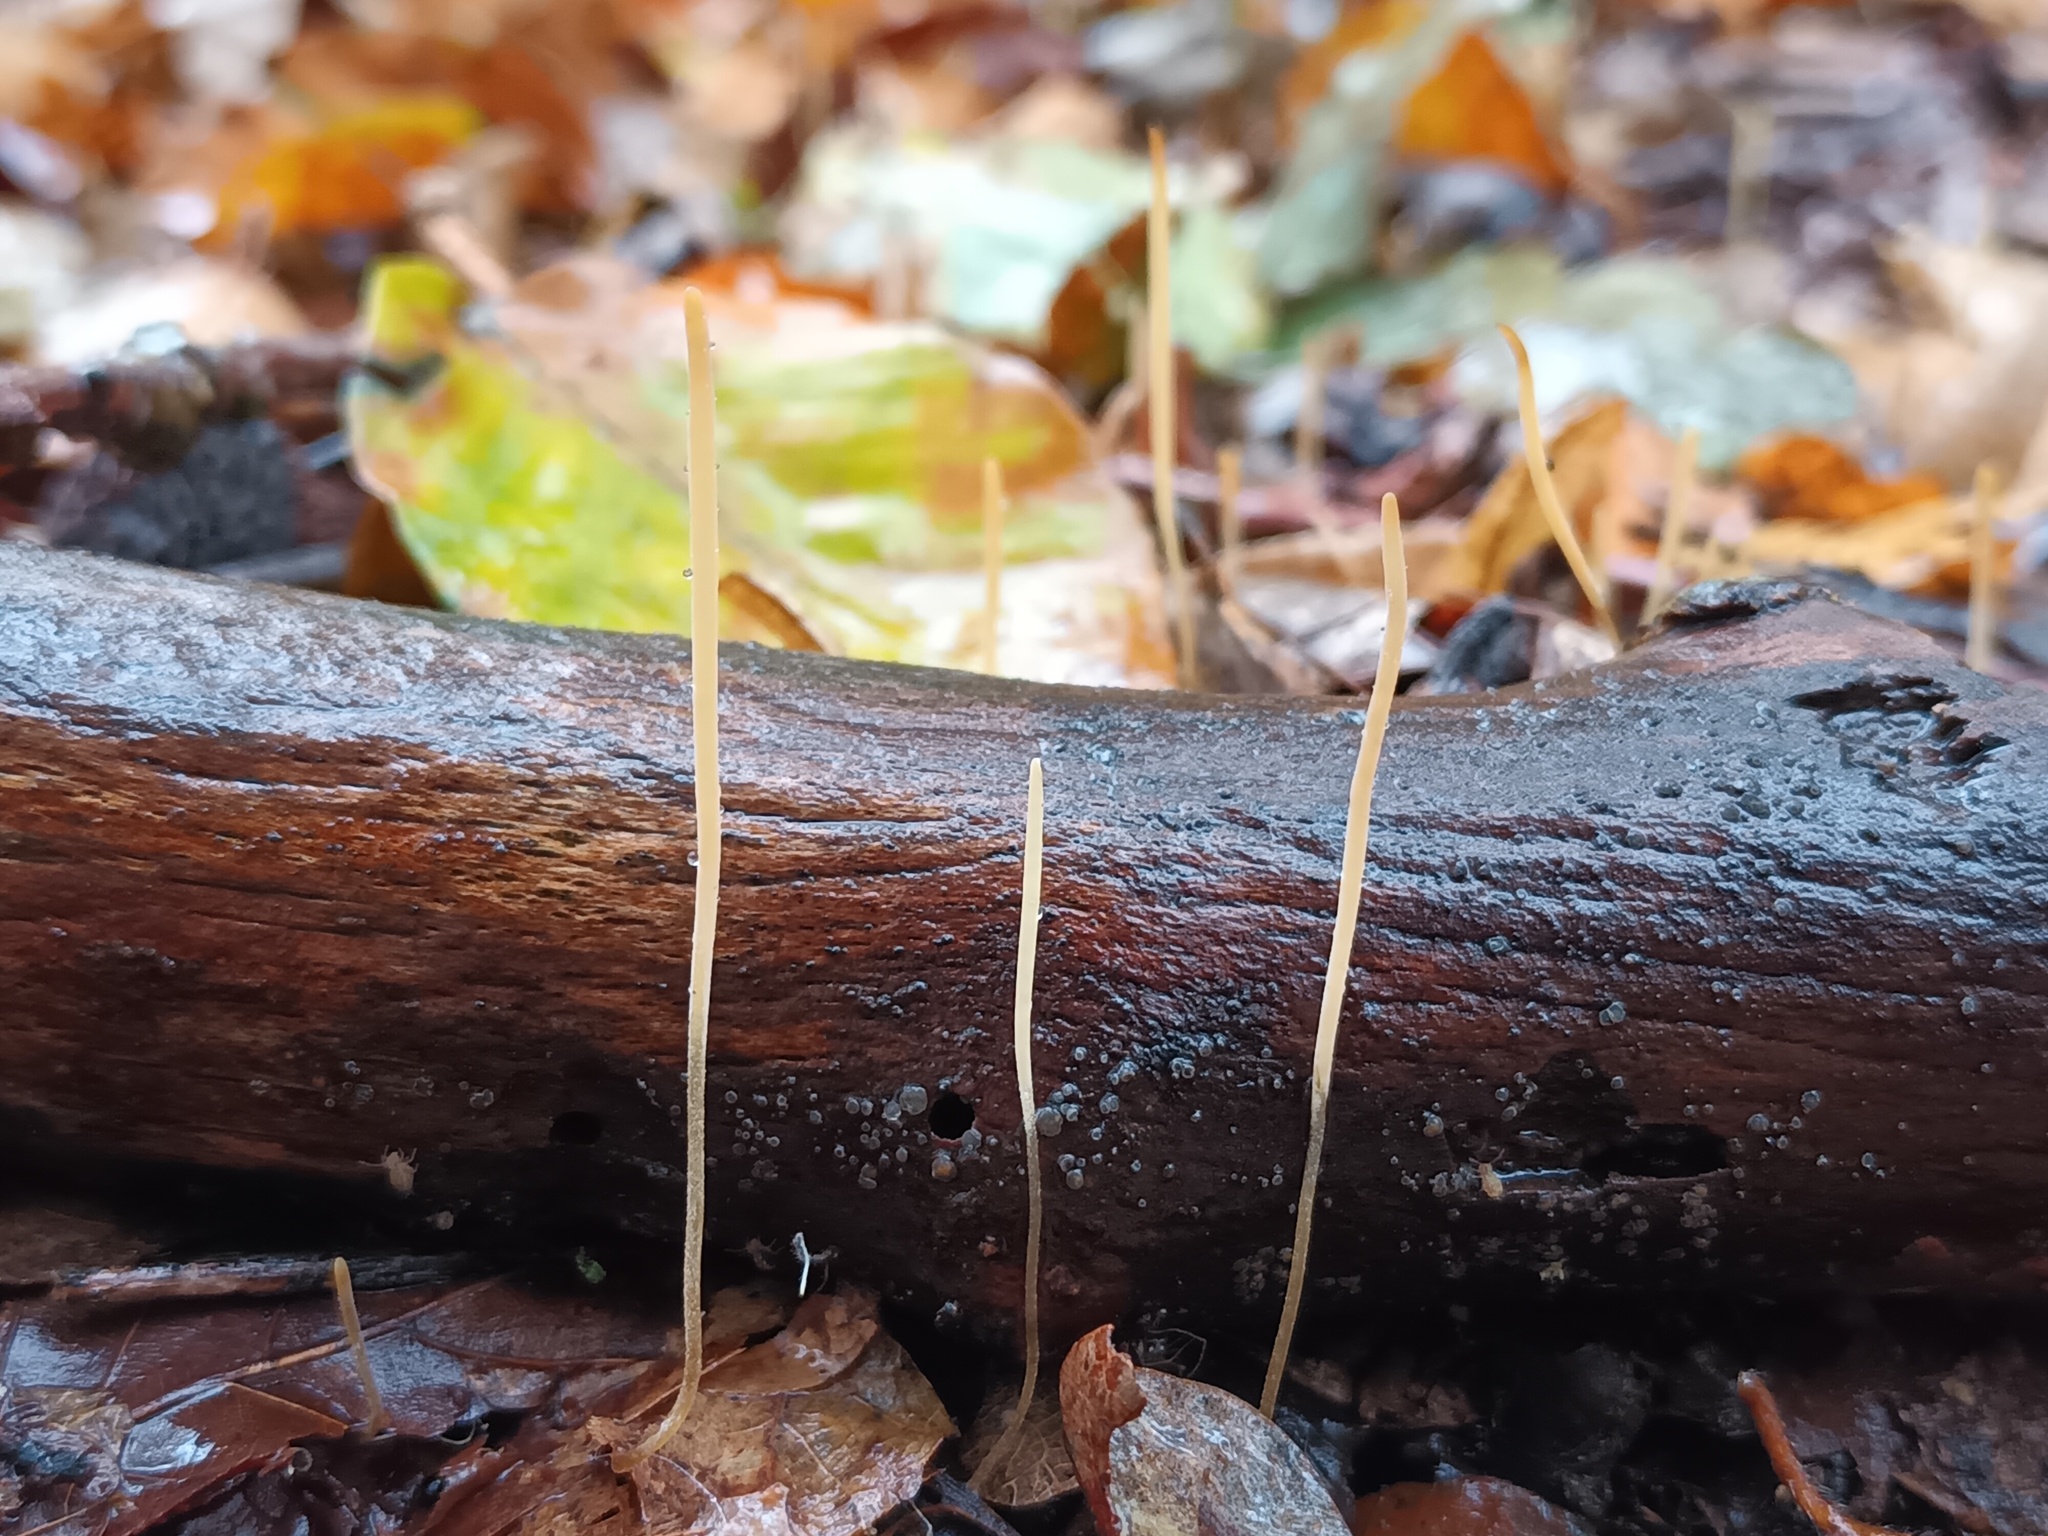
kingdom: Fungi
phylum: Basidiomycota
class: Agaricomycetes
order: Agaricales
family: Typhulaceae
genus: Typhula
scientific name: Typhula juncea
